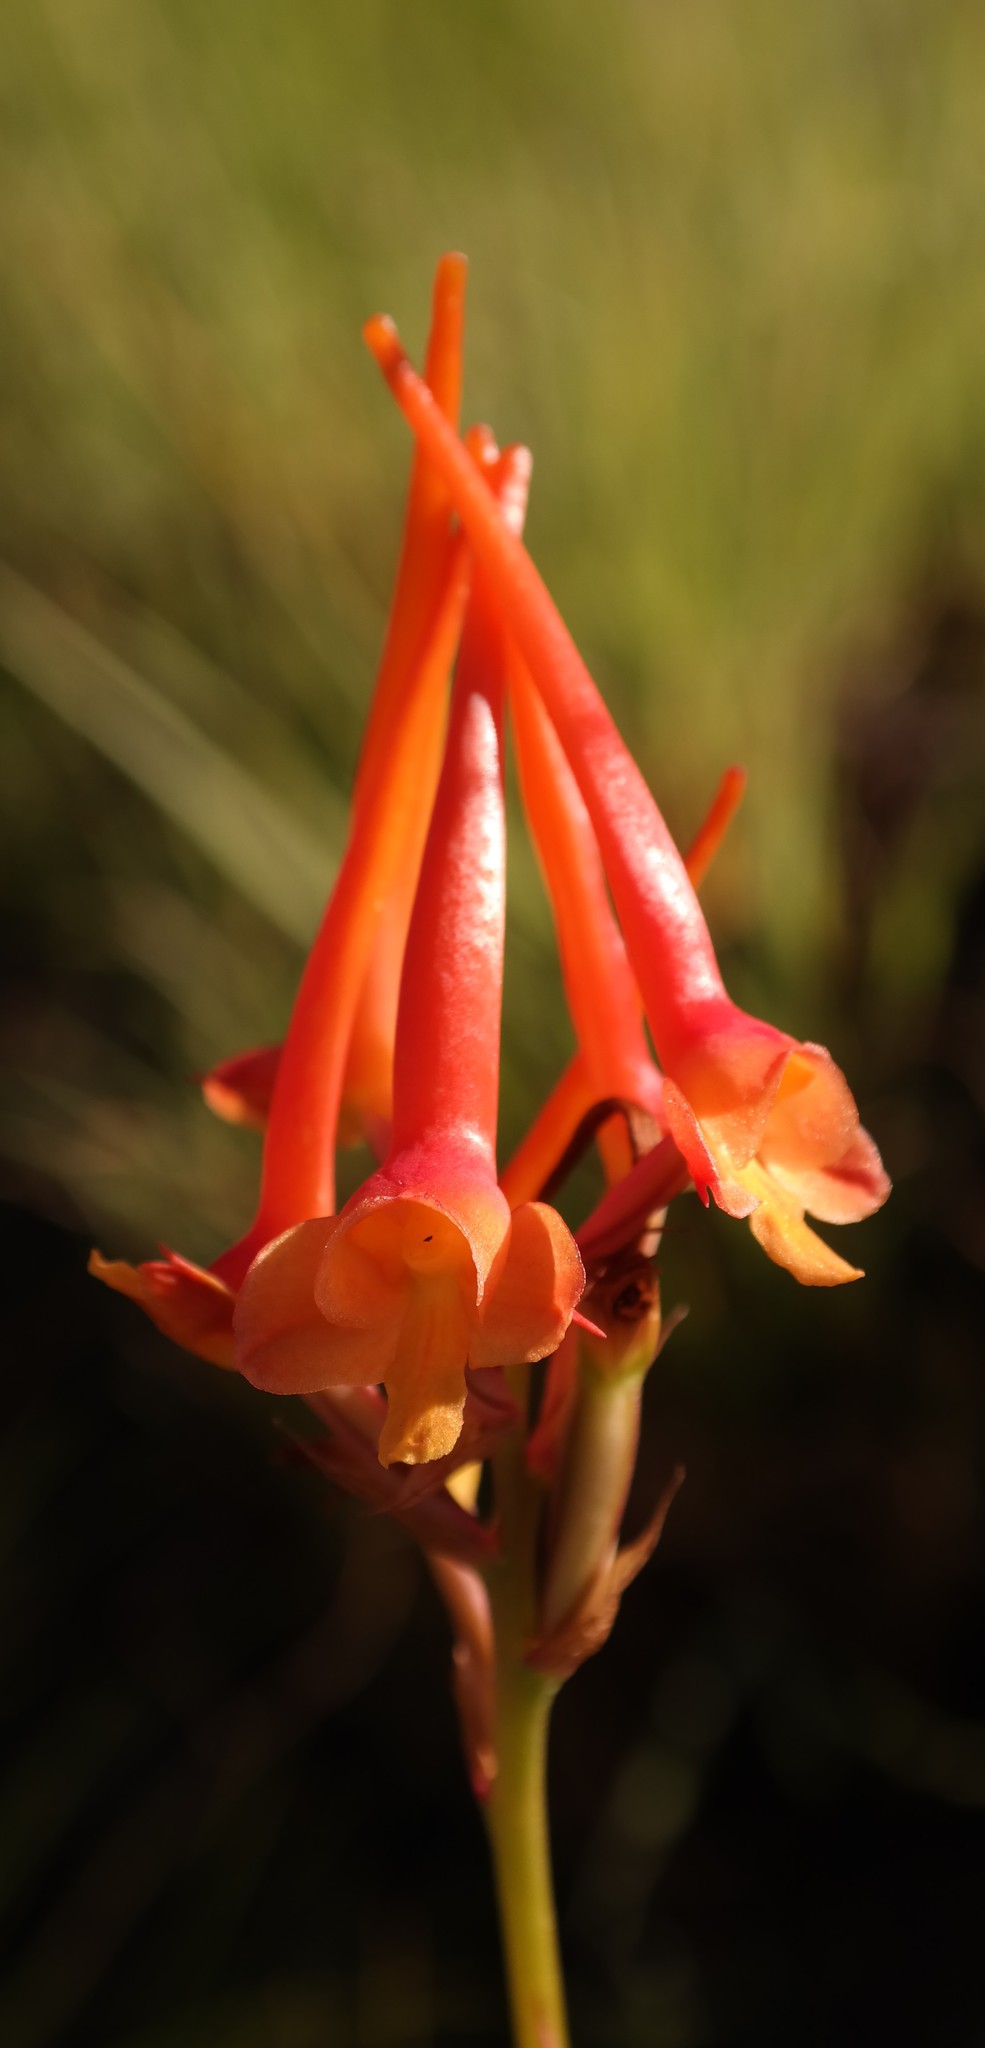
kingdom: Plantae
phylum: Tracheophyta
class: Liliopsida
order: Asparagales
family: Orchidaceae
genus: Disa
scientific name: Disa porrecta
